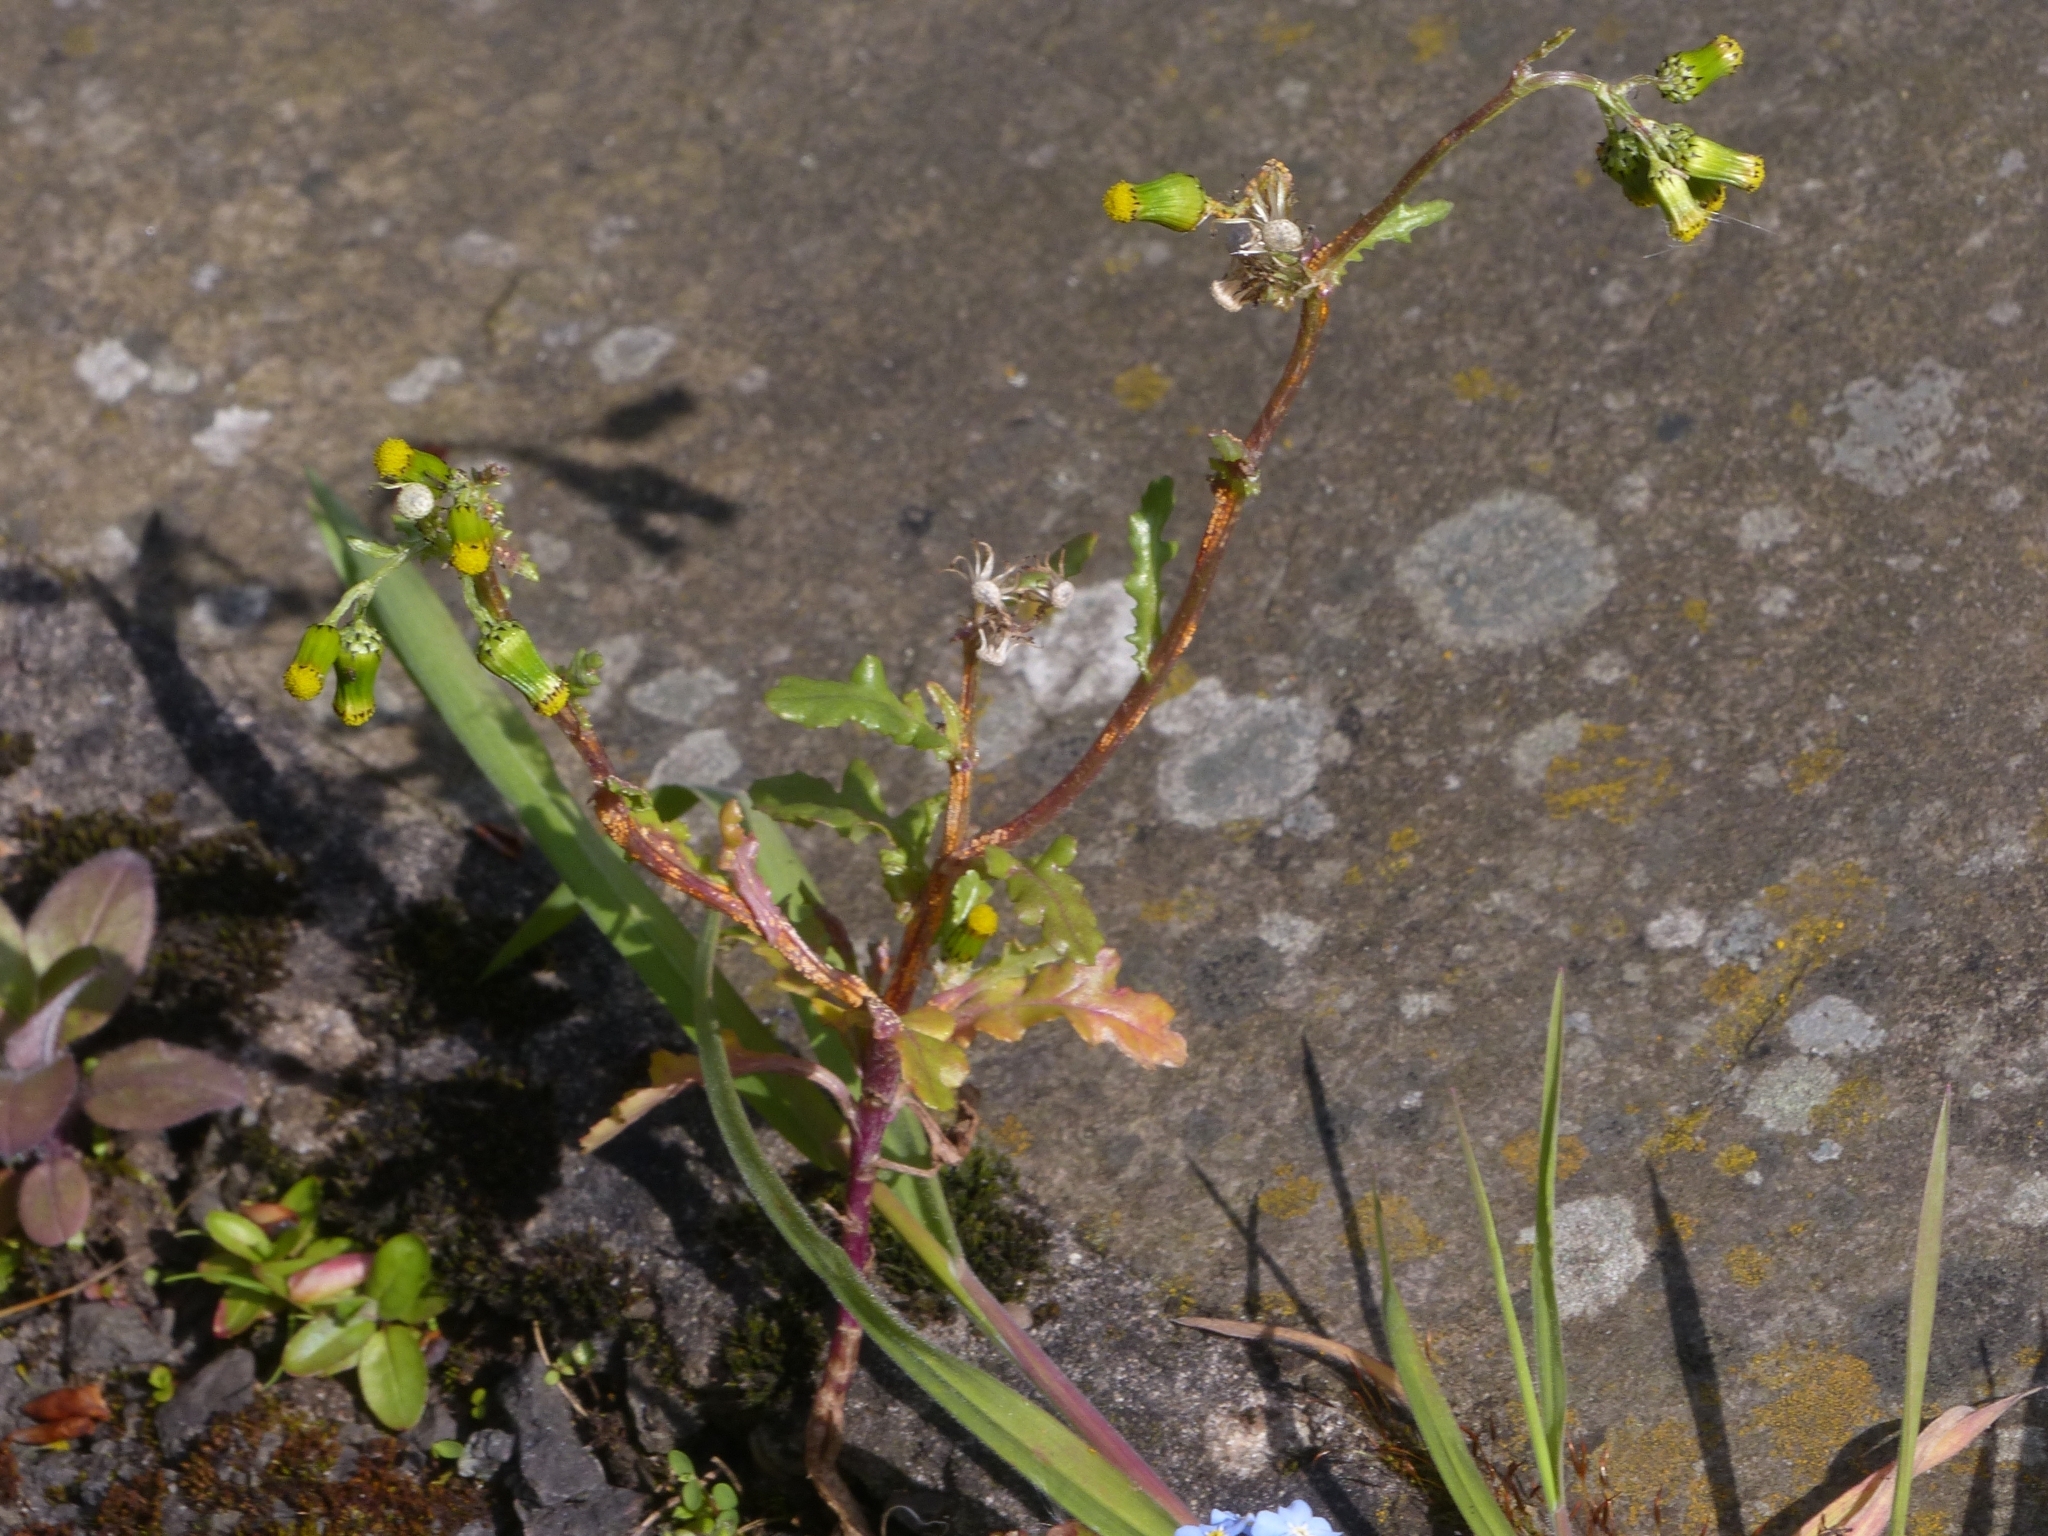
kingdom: Fungi
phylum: Basidiomycota
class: Pucciniomycetes
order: Pucciniales
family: Pucciniaceae
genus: Puccinia
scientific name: Puccinia lagenophorae
